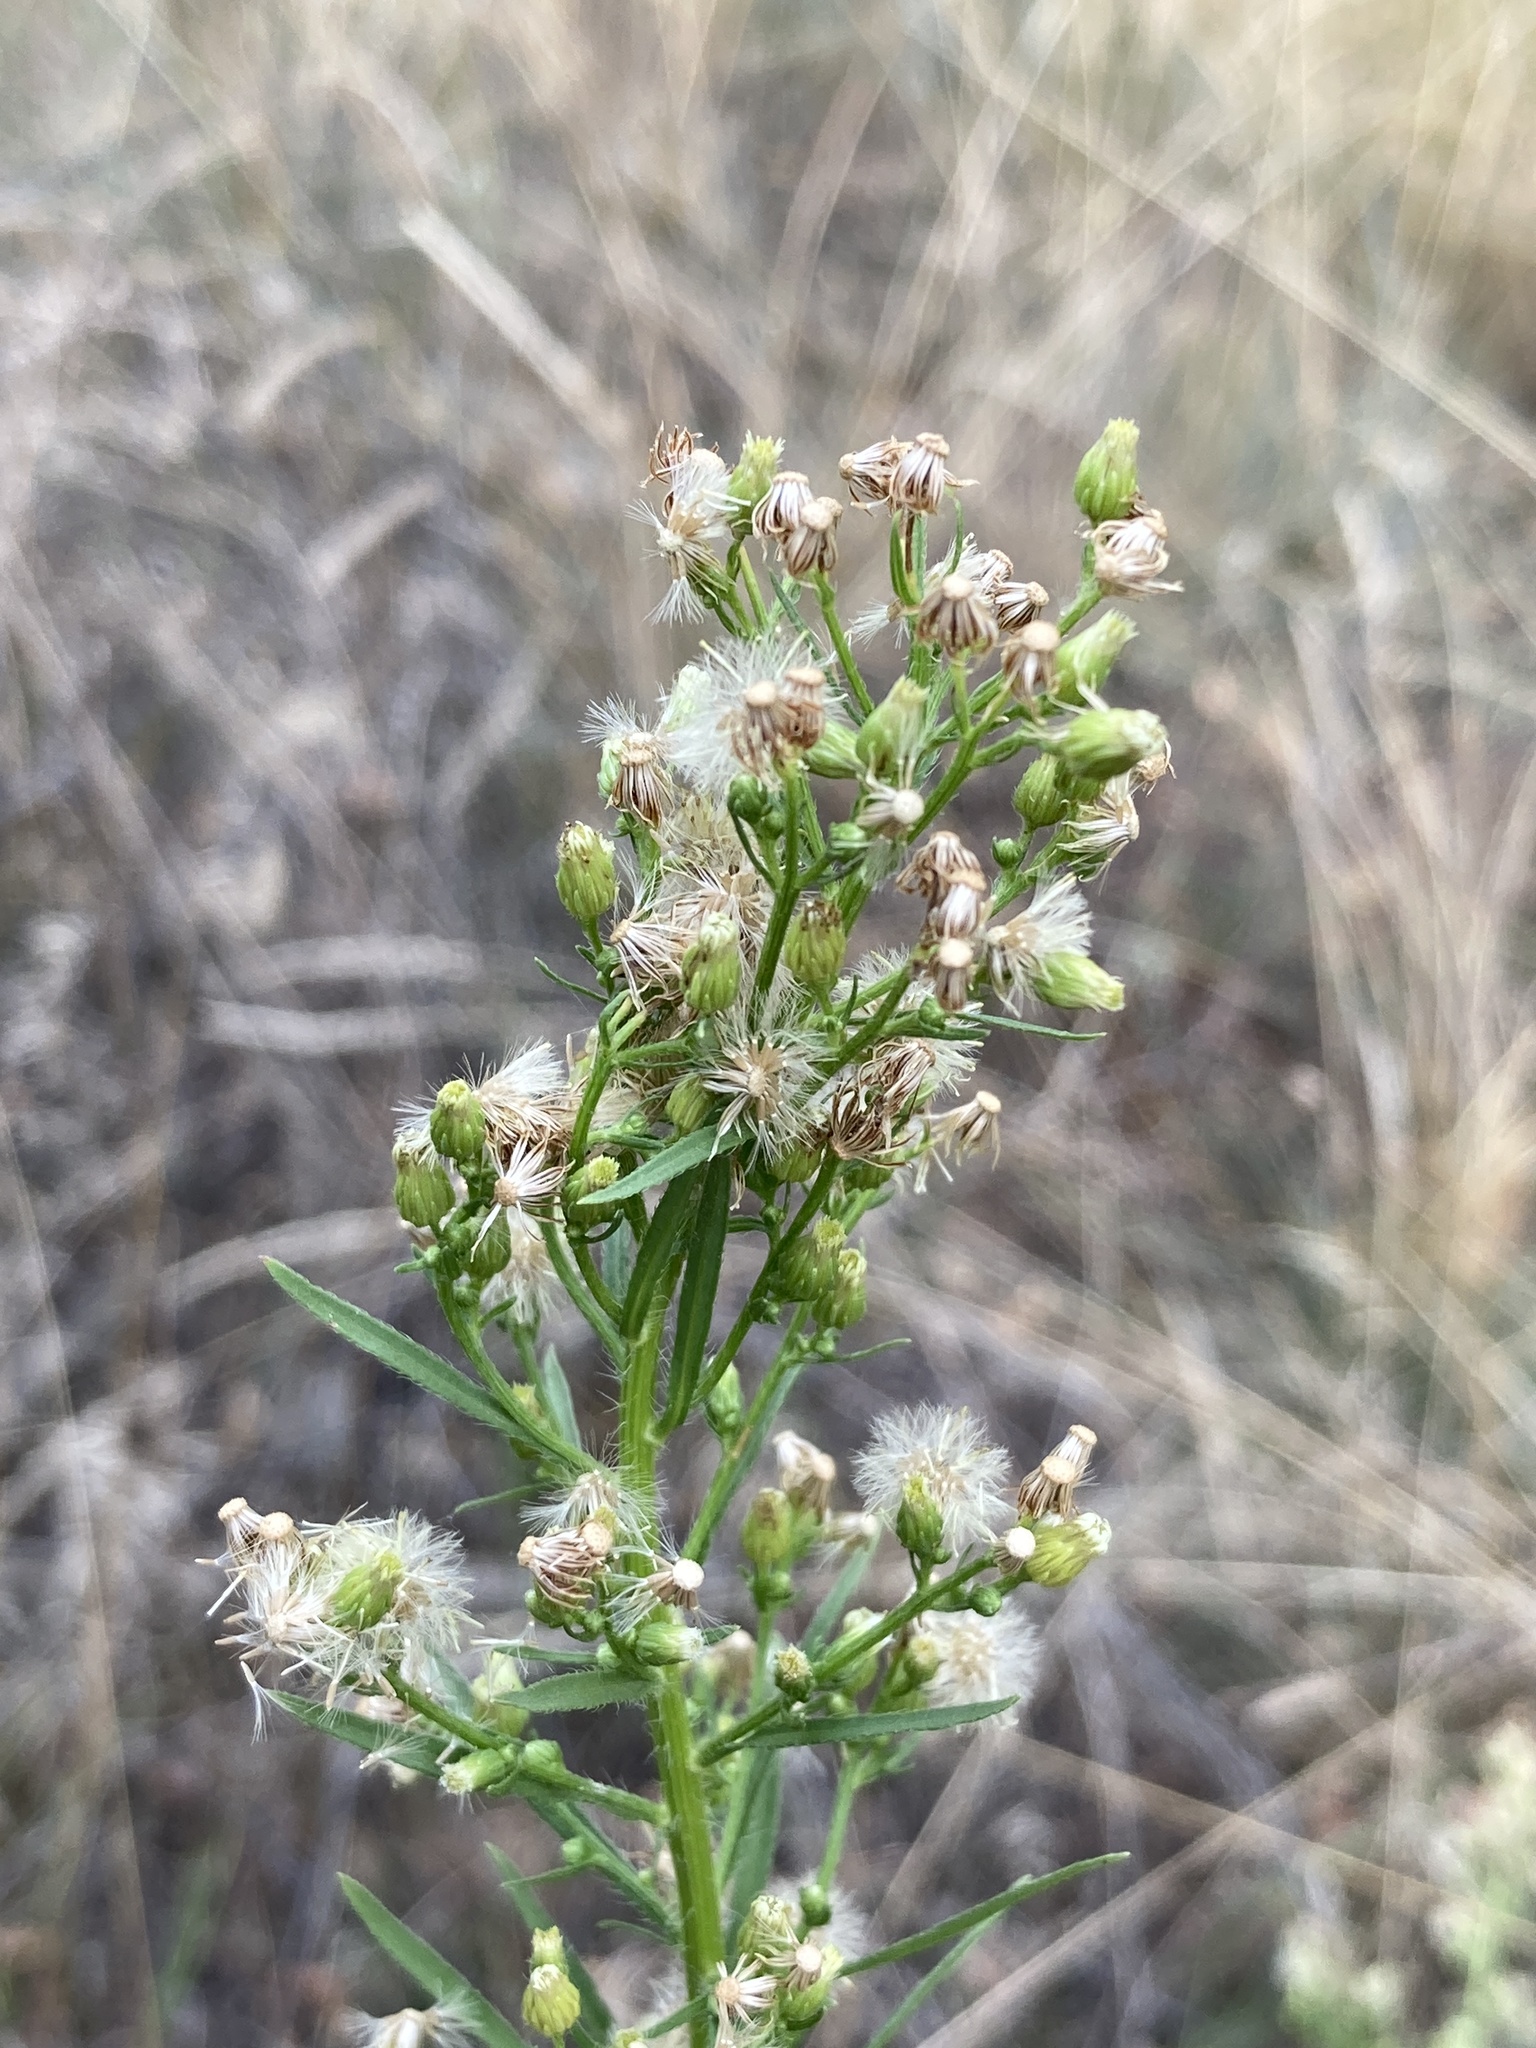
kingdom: Plantae
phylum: Tracheophyta
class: Magnoliopsida
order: Asterales
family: Asteraceae
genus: Erigeron
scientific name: Erigeron canadensis
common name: Canadian fleabane
